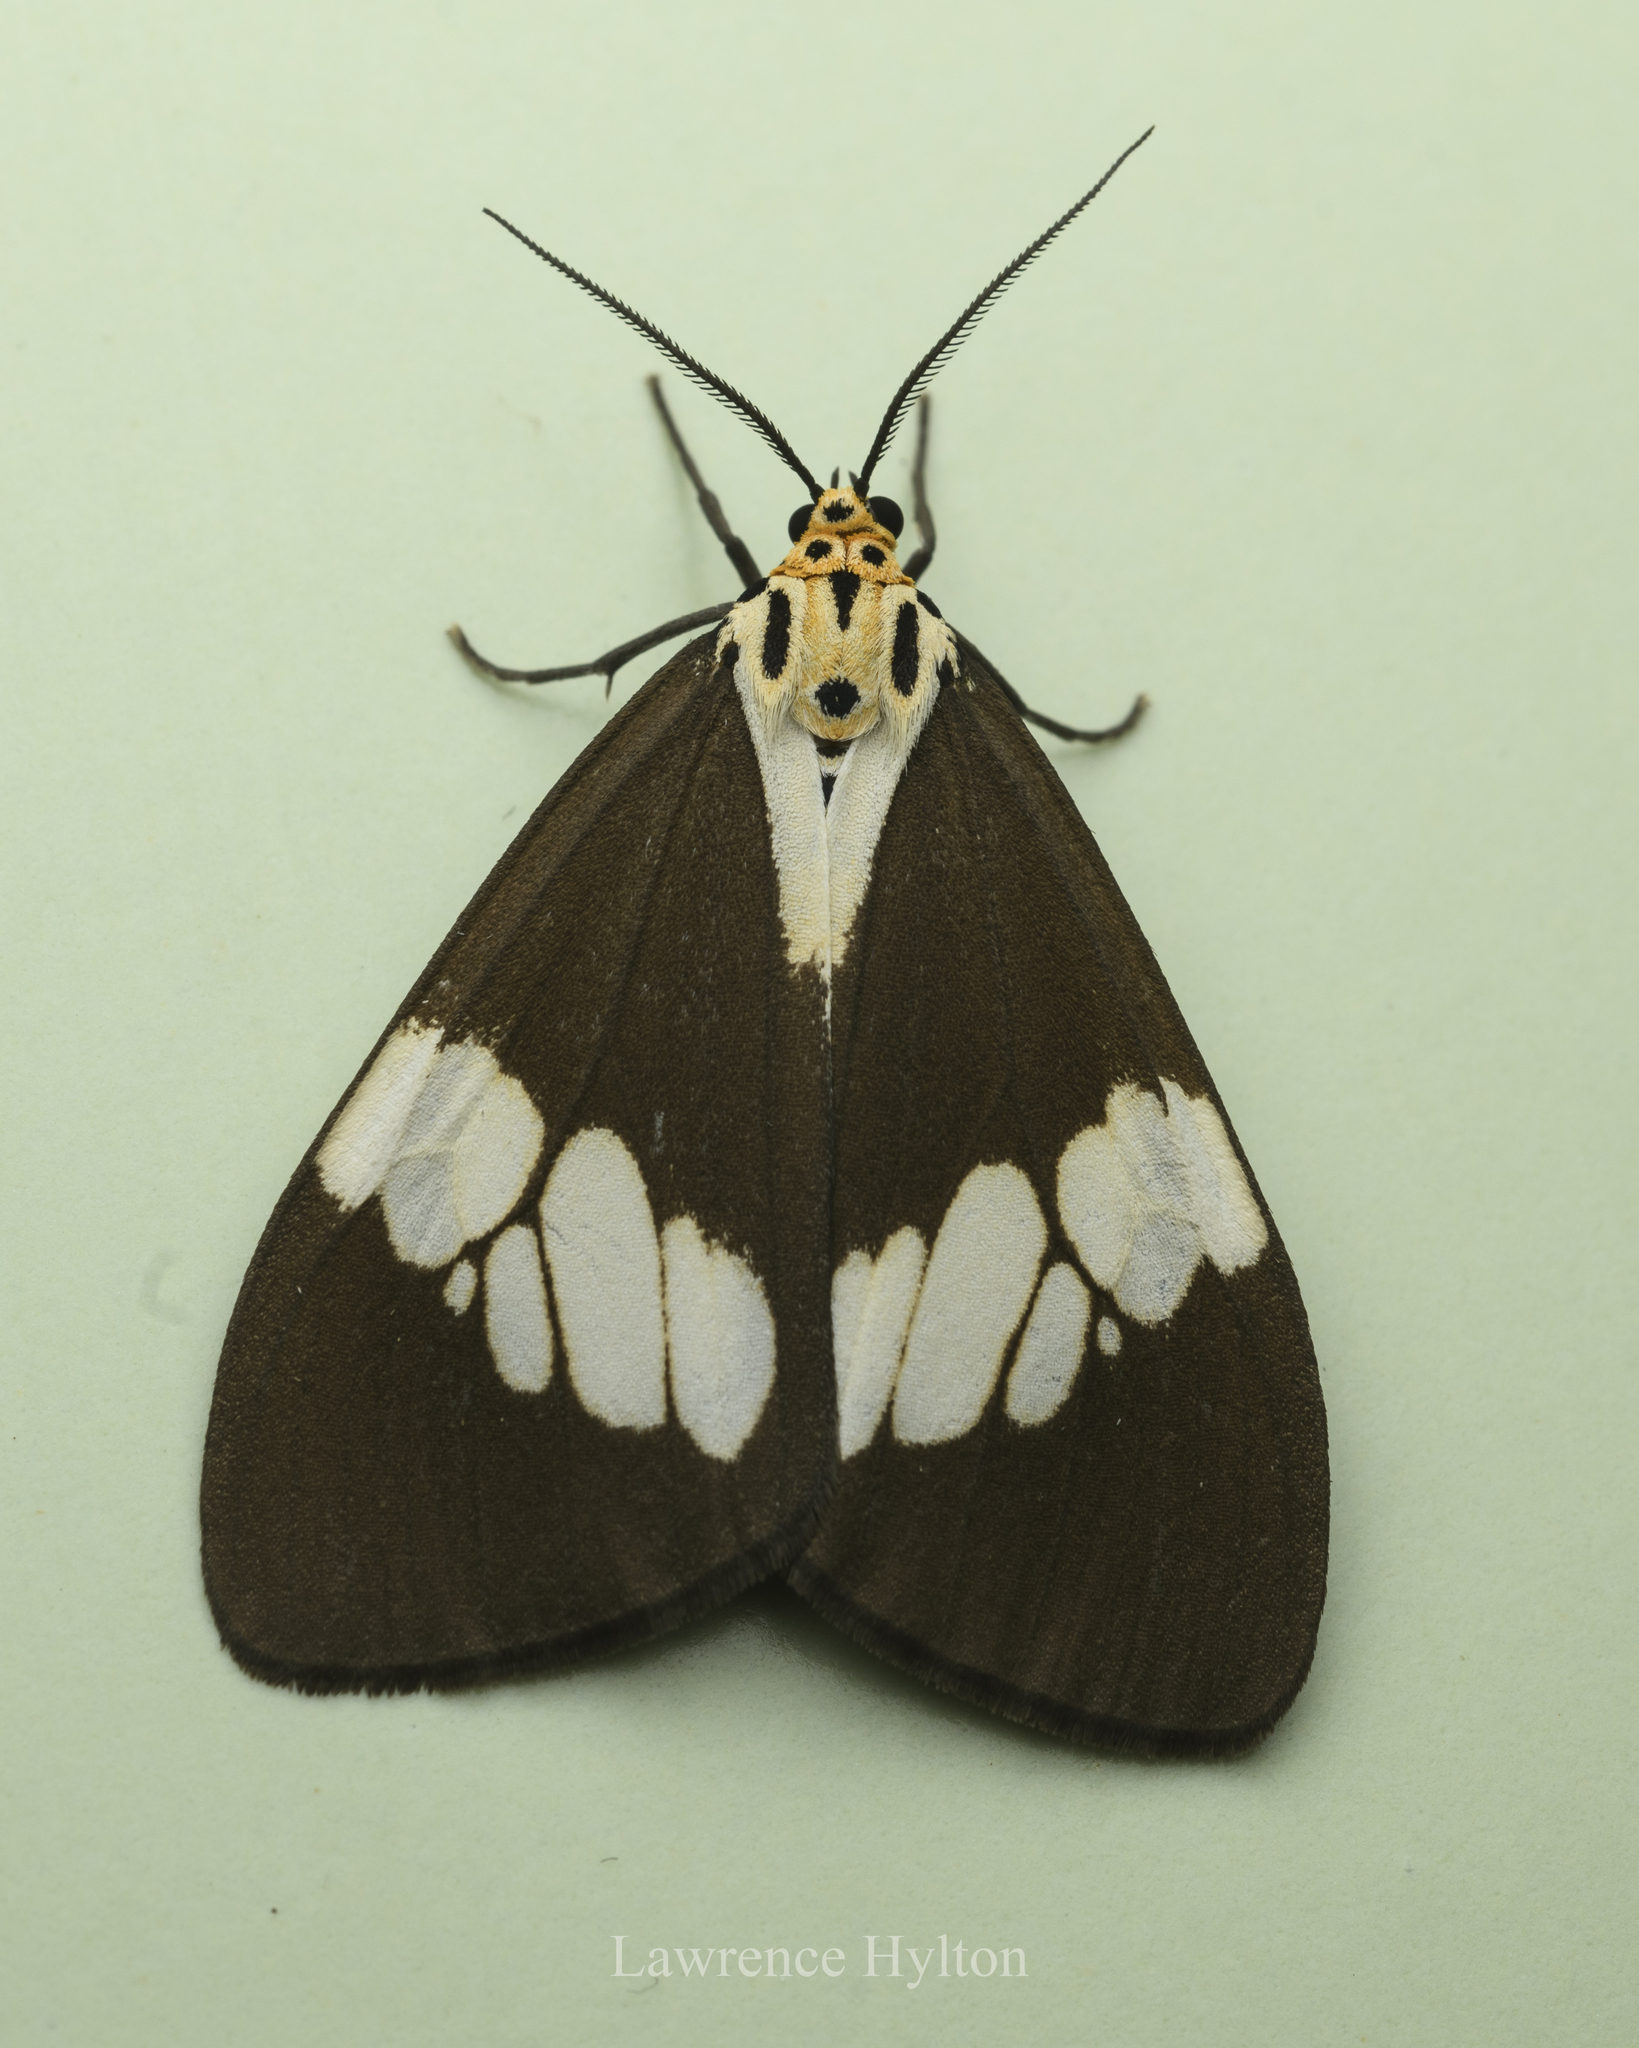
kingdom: Animalia
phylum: Arthropoda
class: Insecta
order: Lepidoptera
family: Erebidae
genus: Nyctemera
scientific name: Nyctemera lacticinia
